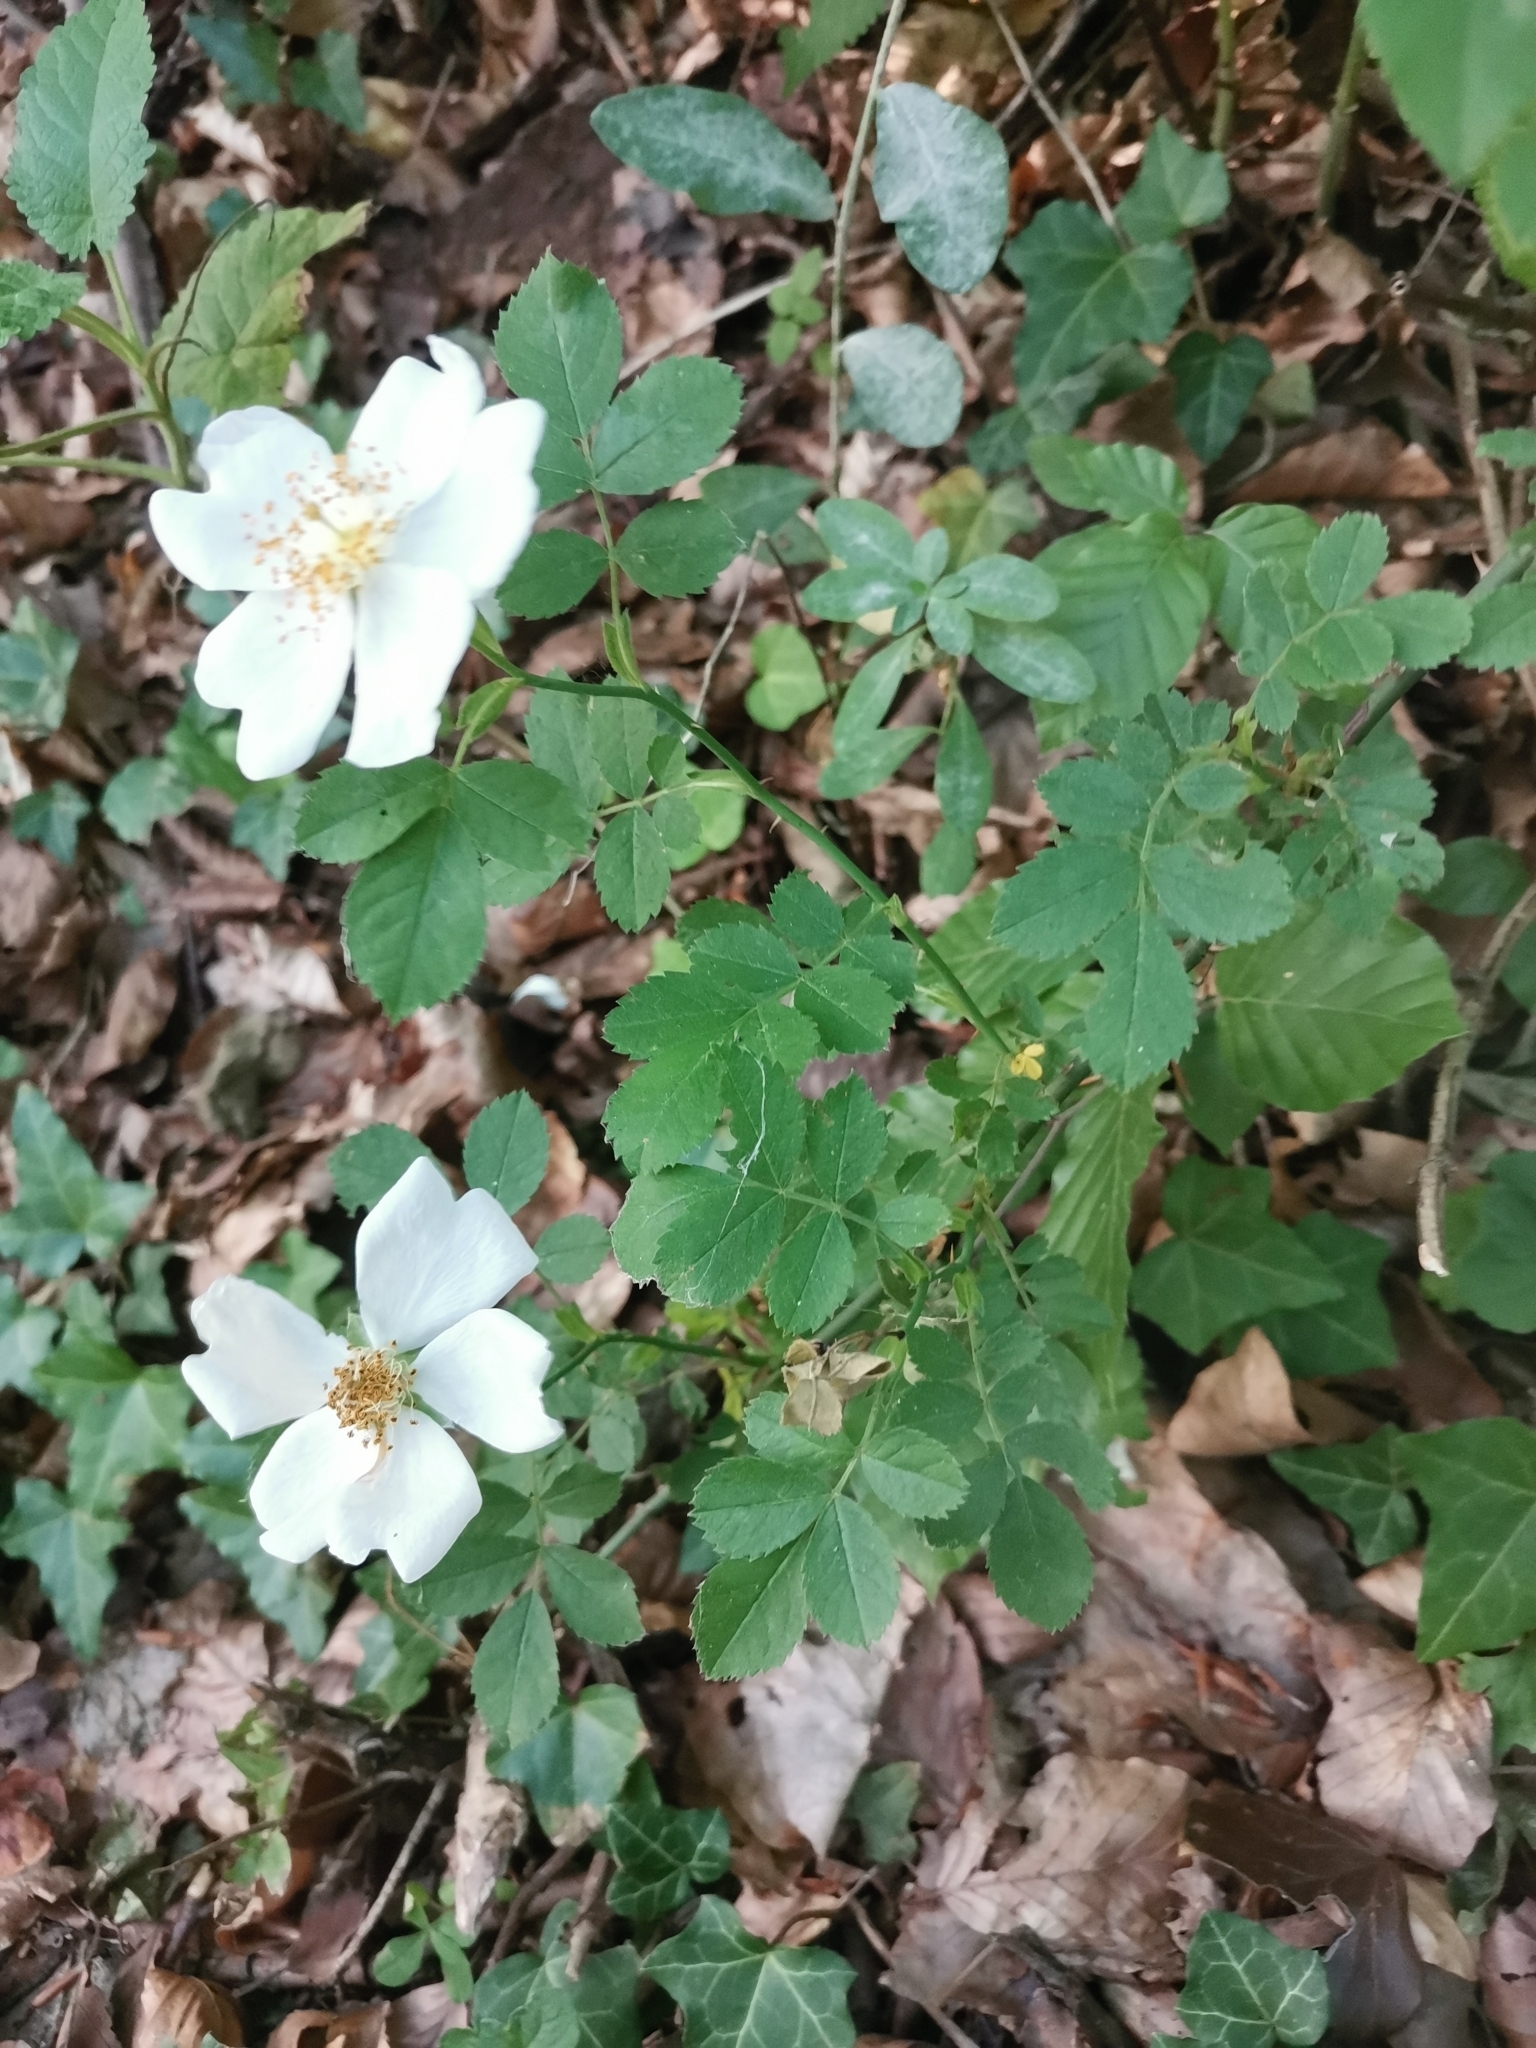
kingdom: Plantae
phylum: Tracheophyta
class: Magnoliopsida
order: Rosales
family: Rosaceae
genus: Rosa
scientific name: Rosa arvensis
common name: Field rose
